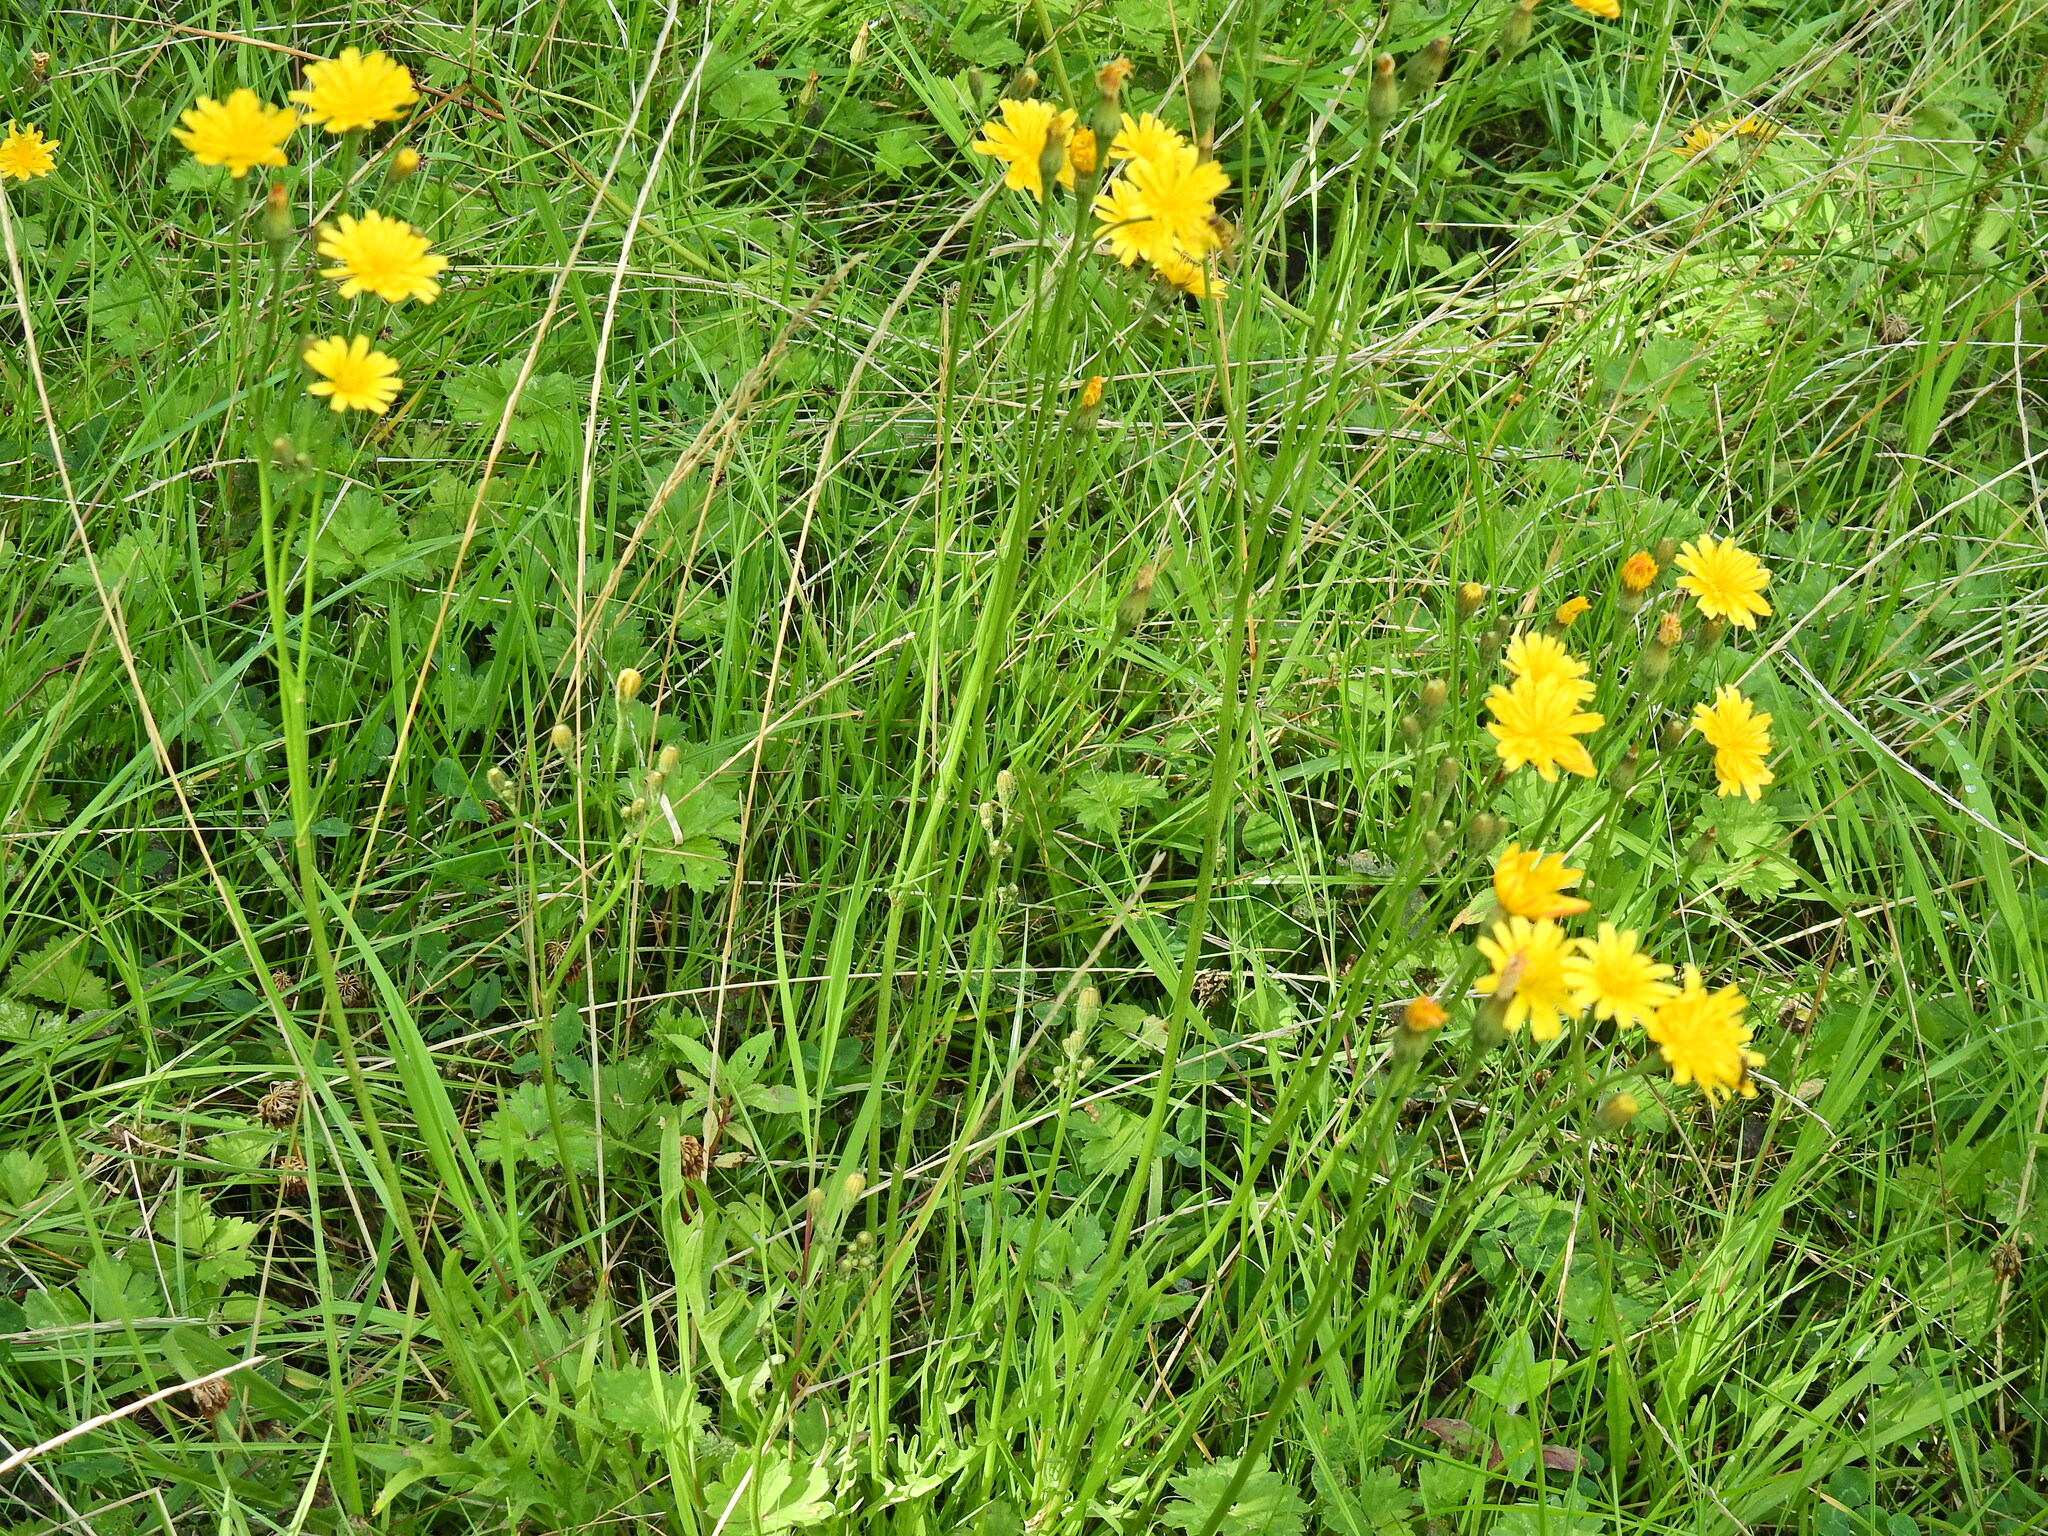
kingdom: Plantae
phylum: Tracheophyta
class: Magnoliopsida
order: Asterales
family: Asteraceae
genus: Hypochaeris
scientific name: Hypochaeris radicata
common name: Flatweed
